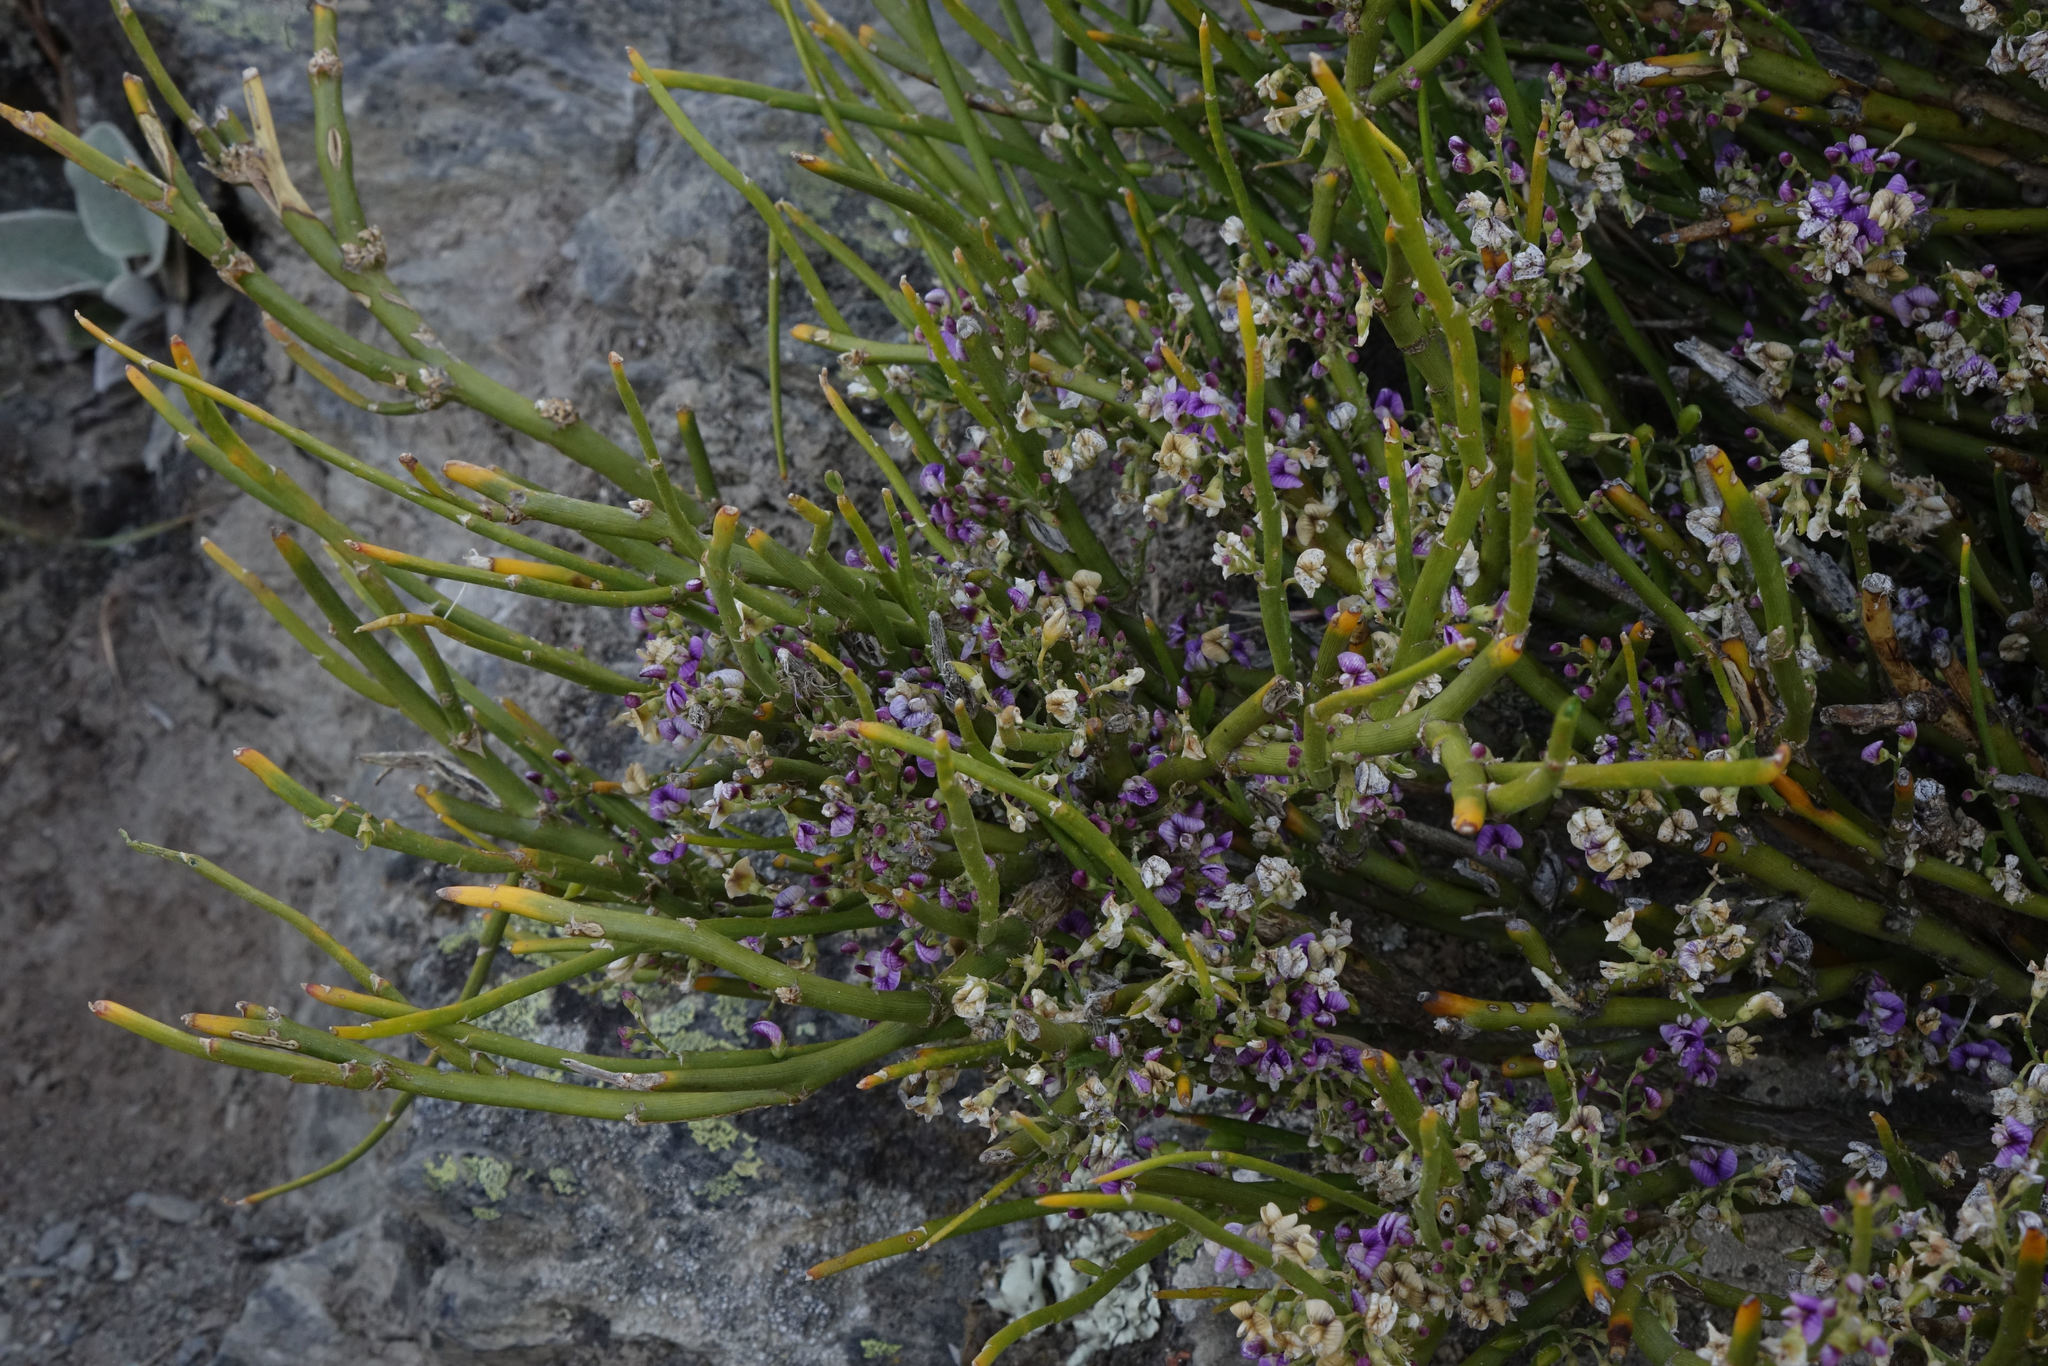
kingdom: Plantae
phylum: Tracheophyta
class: Magnoliopsida
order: Fabales
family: Fabaceae
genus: Carmichaelia
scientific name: Carmichaelia petriei
